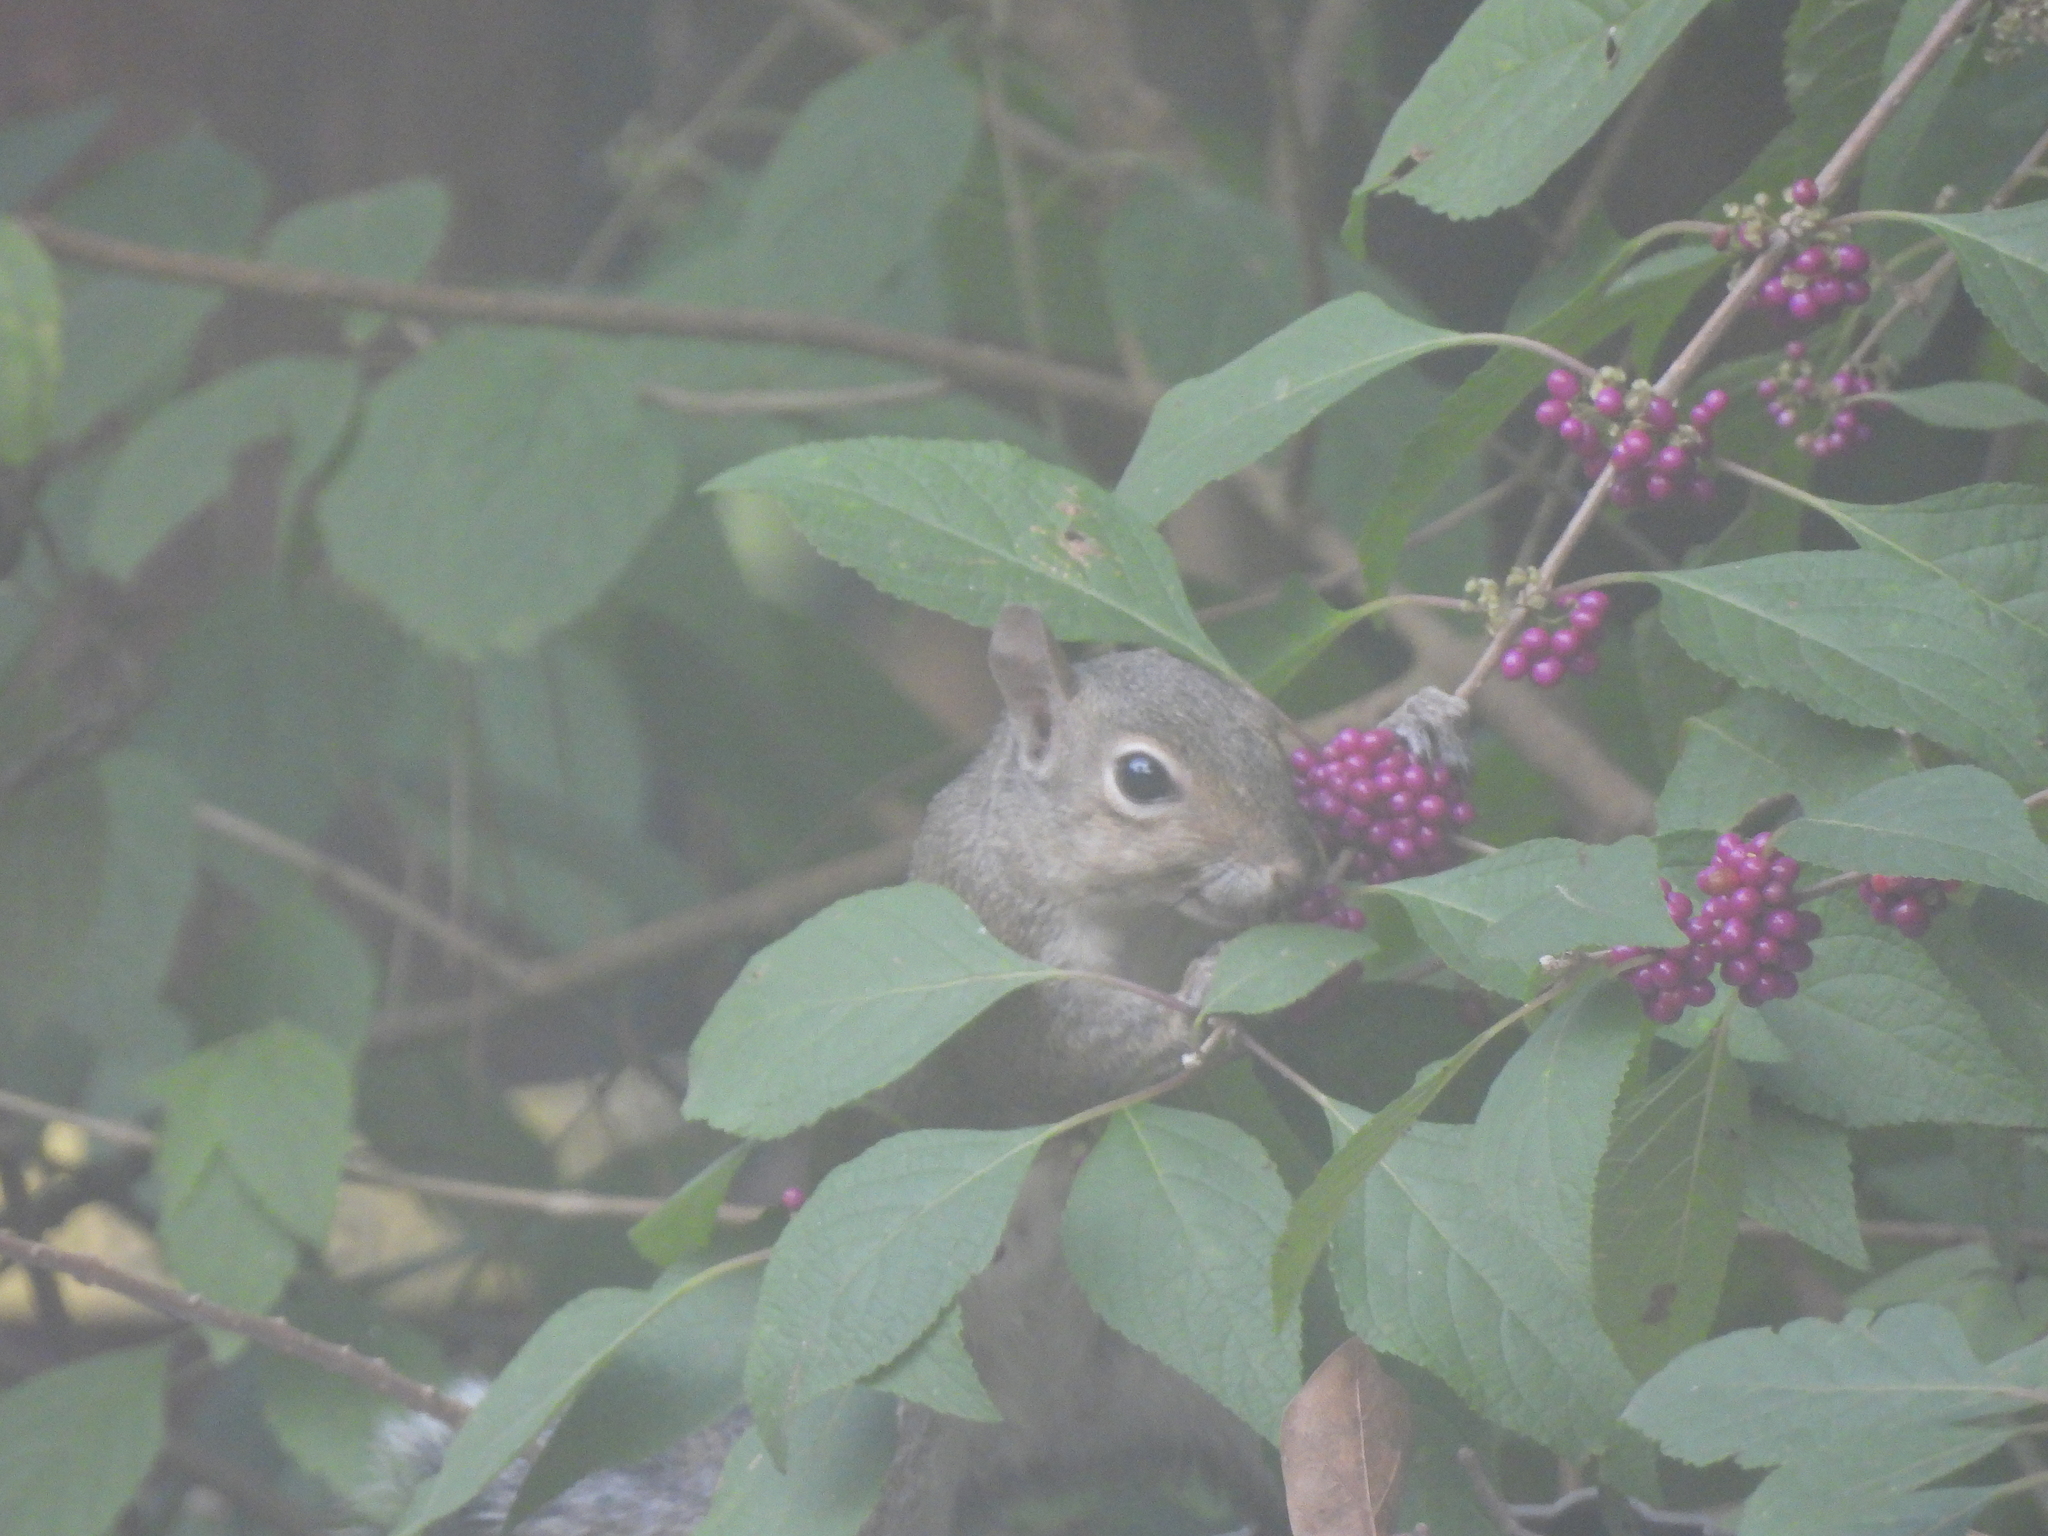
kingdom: Animalia
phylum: Chordata
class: Mammalia
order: Rodentia
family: Sciuridae
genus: Sciurus
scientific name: Sciurus carolinensis
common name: Eastern gray squirrel
